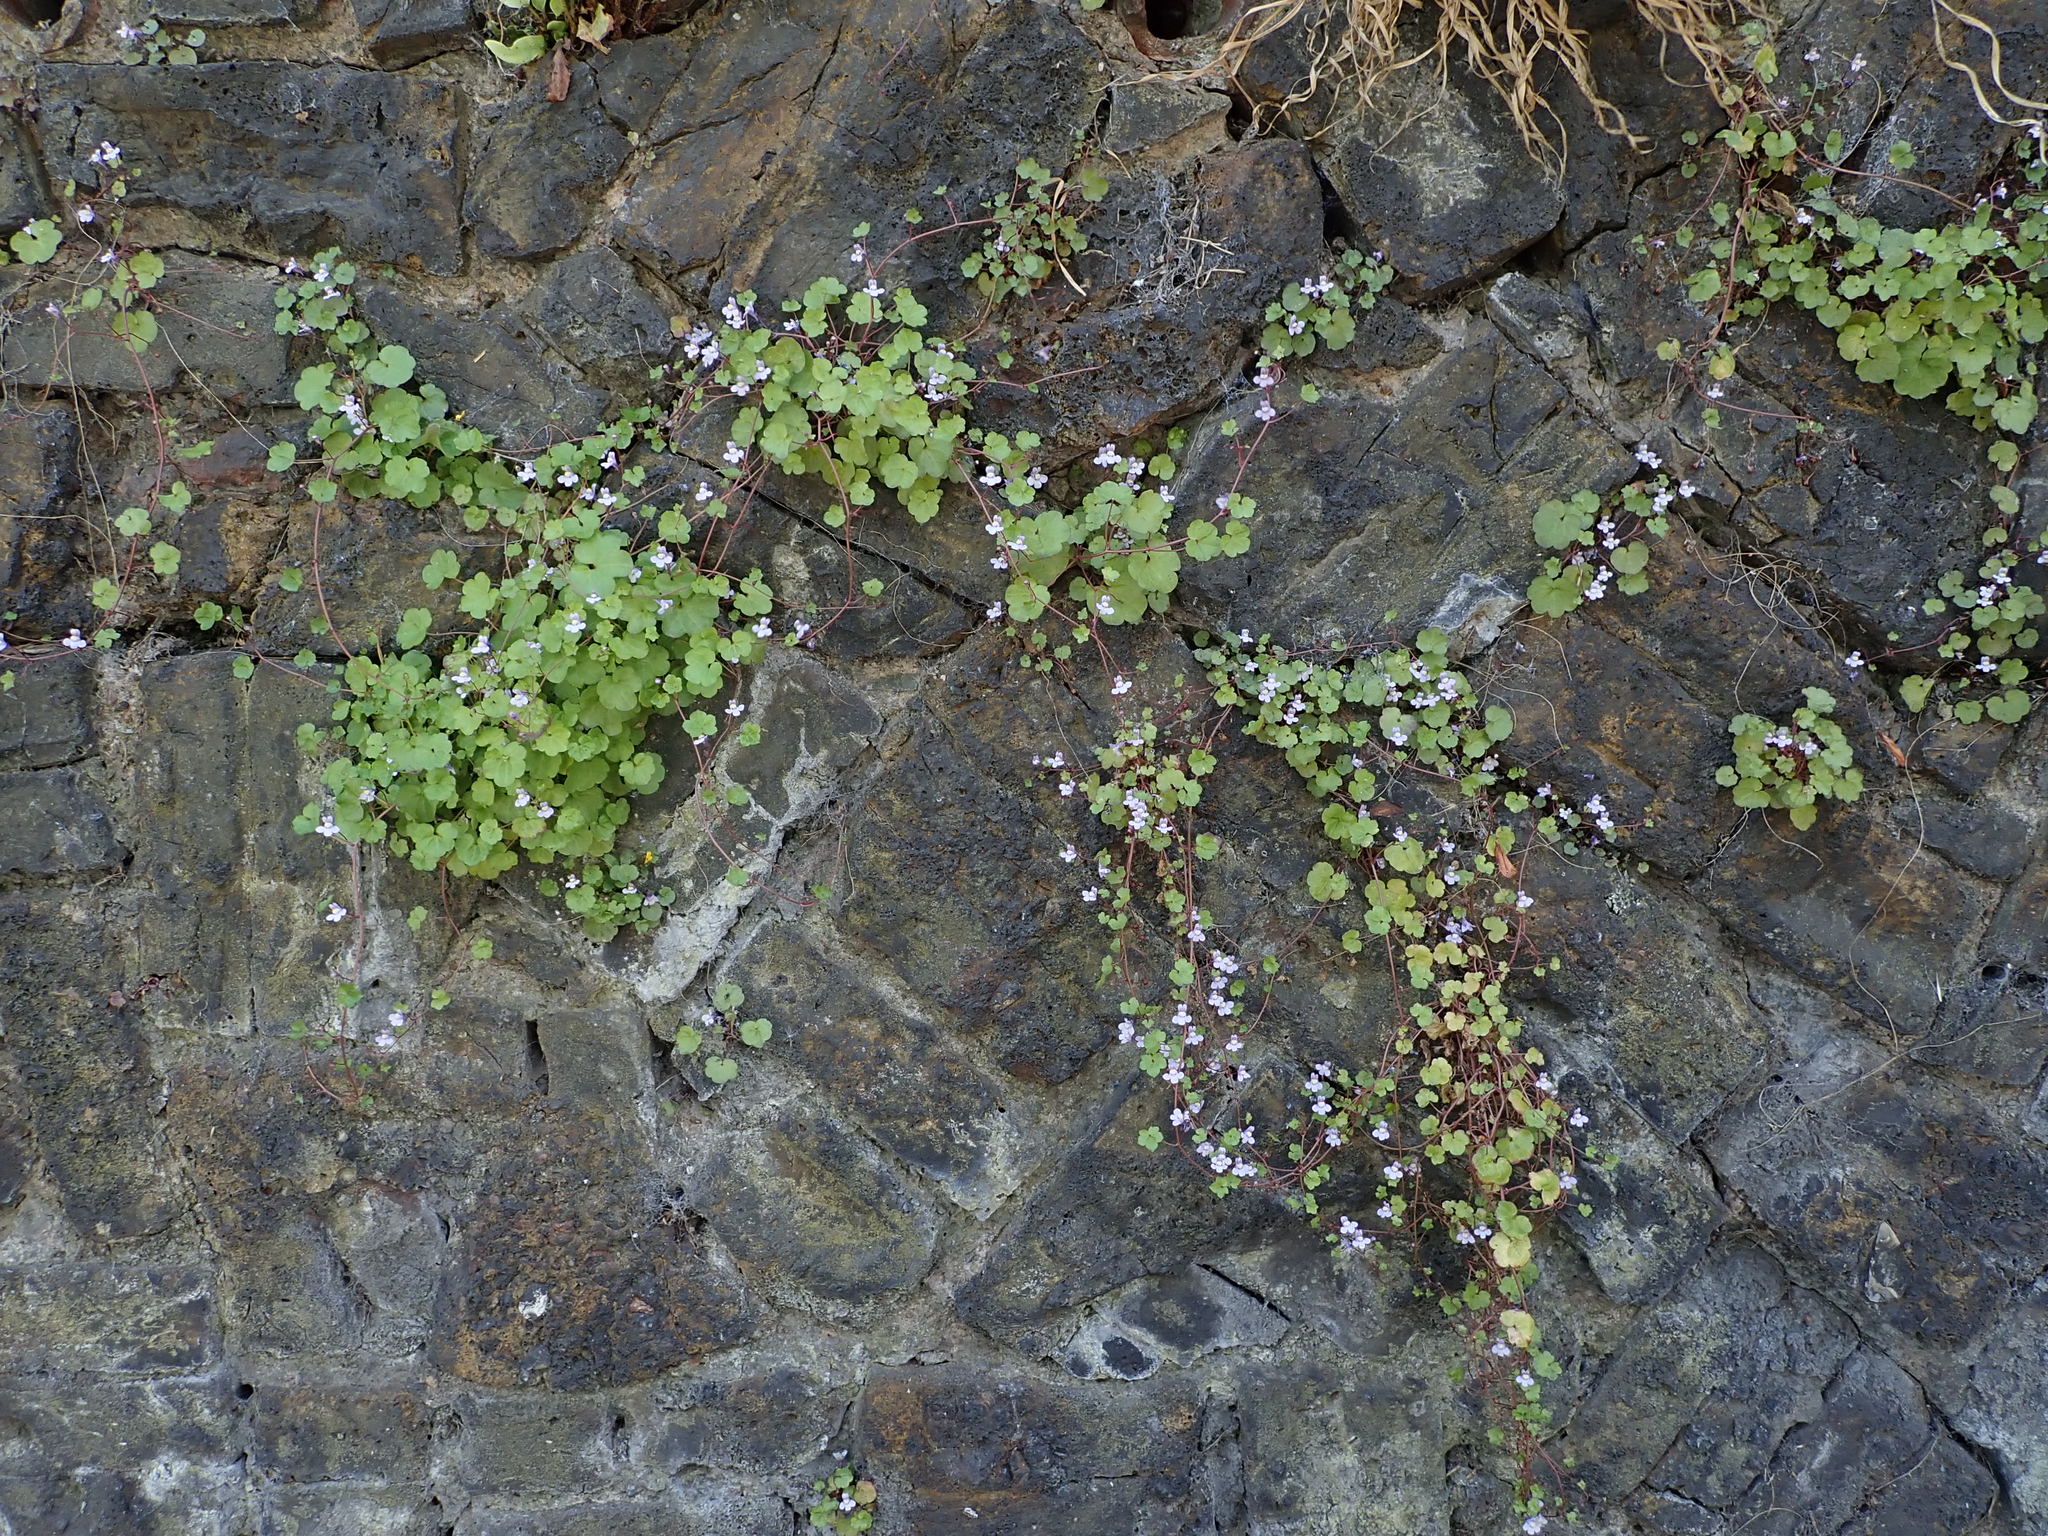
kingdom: Plantae
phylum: Tracheophyta
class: Magnoliopsida
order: Lamiales
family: Plantaginaceae
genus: Cymbalaria
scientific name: Cymbalaria muralis
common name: Ivy-leaved toadflax
